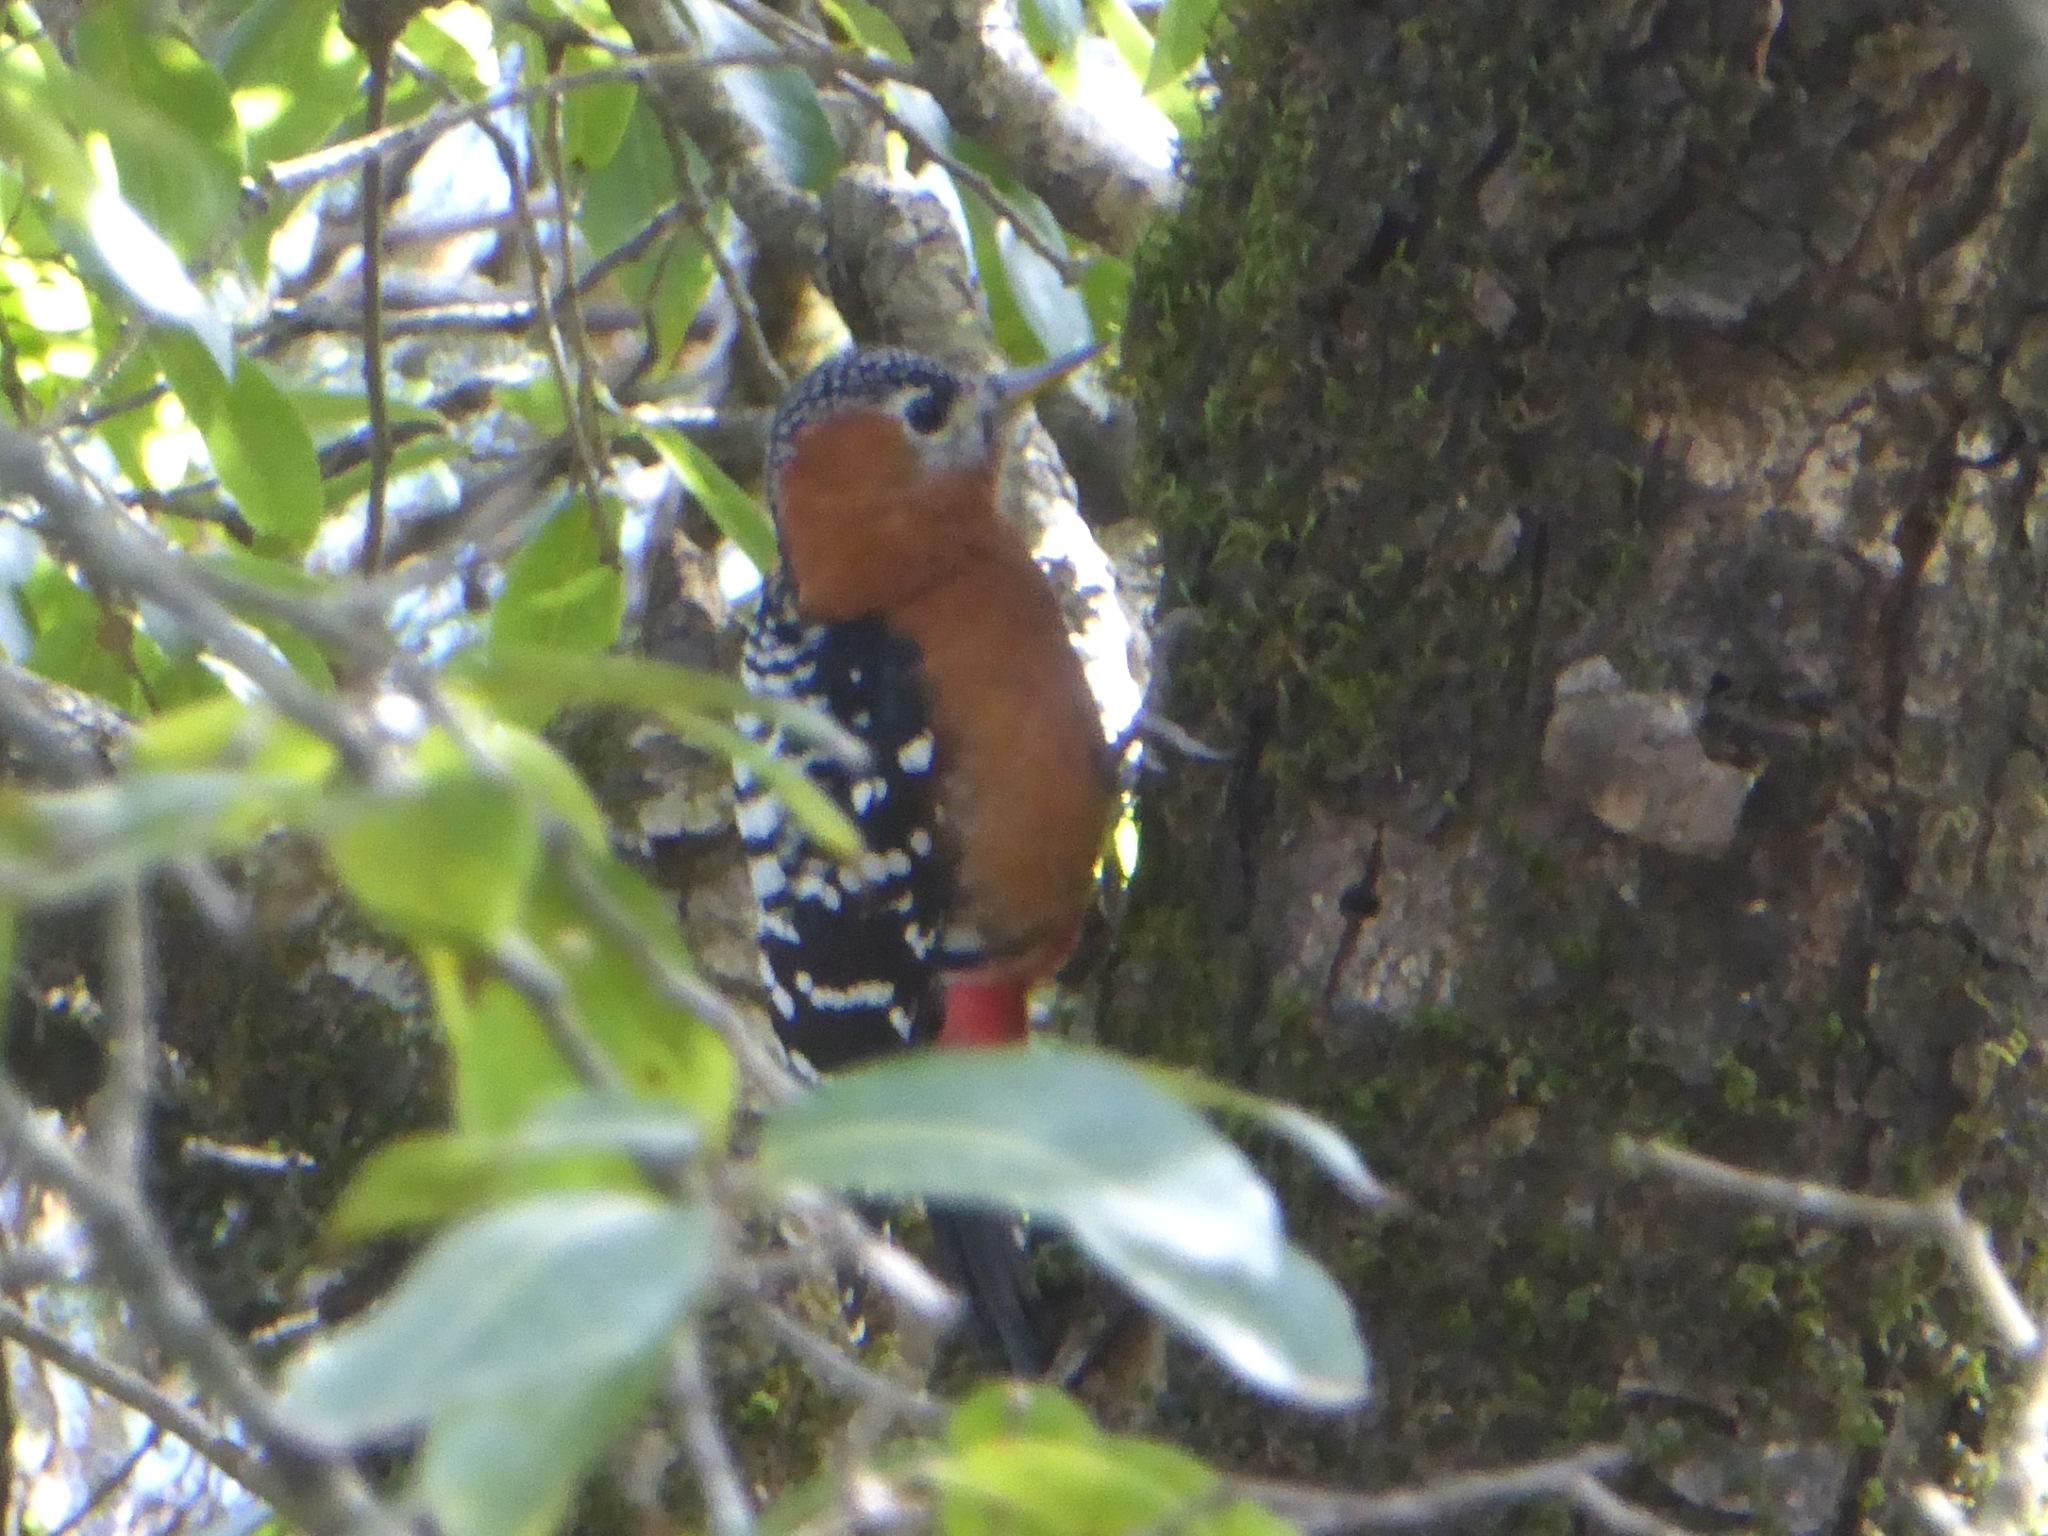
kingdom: Animalia
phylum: Chordata
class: Aves
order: Piciformes
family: Picidae
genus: Dendrocopos
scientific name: Dendrocopos hyperythrus
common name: Rufous-bellied woodpecker
